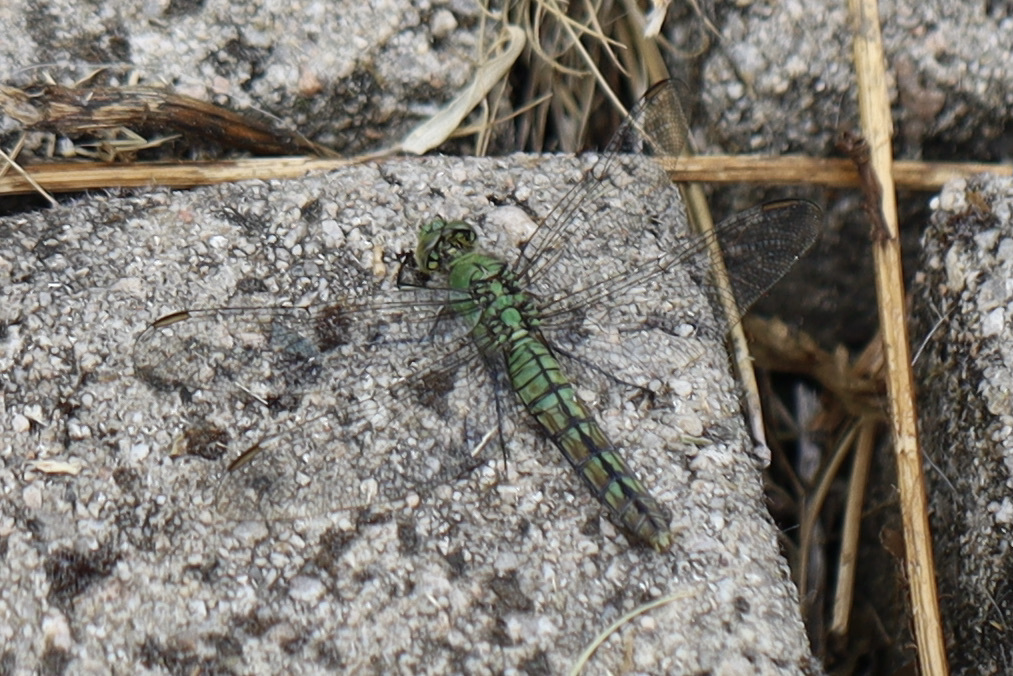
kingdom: Animalia
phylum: Arthropoda
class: Insecta
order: Odonata
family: Libellulidae
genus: Erythemis
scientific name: Erythemis collocata
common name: Western pondhawk
